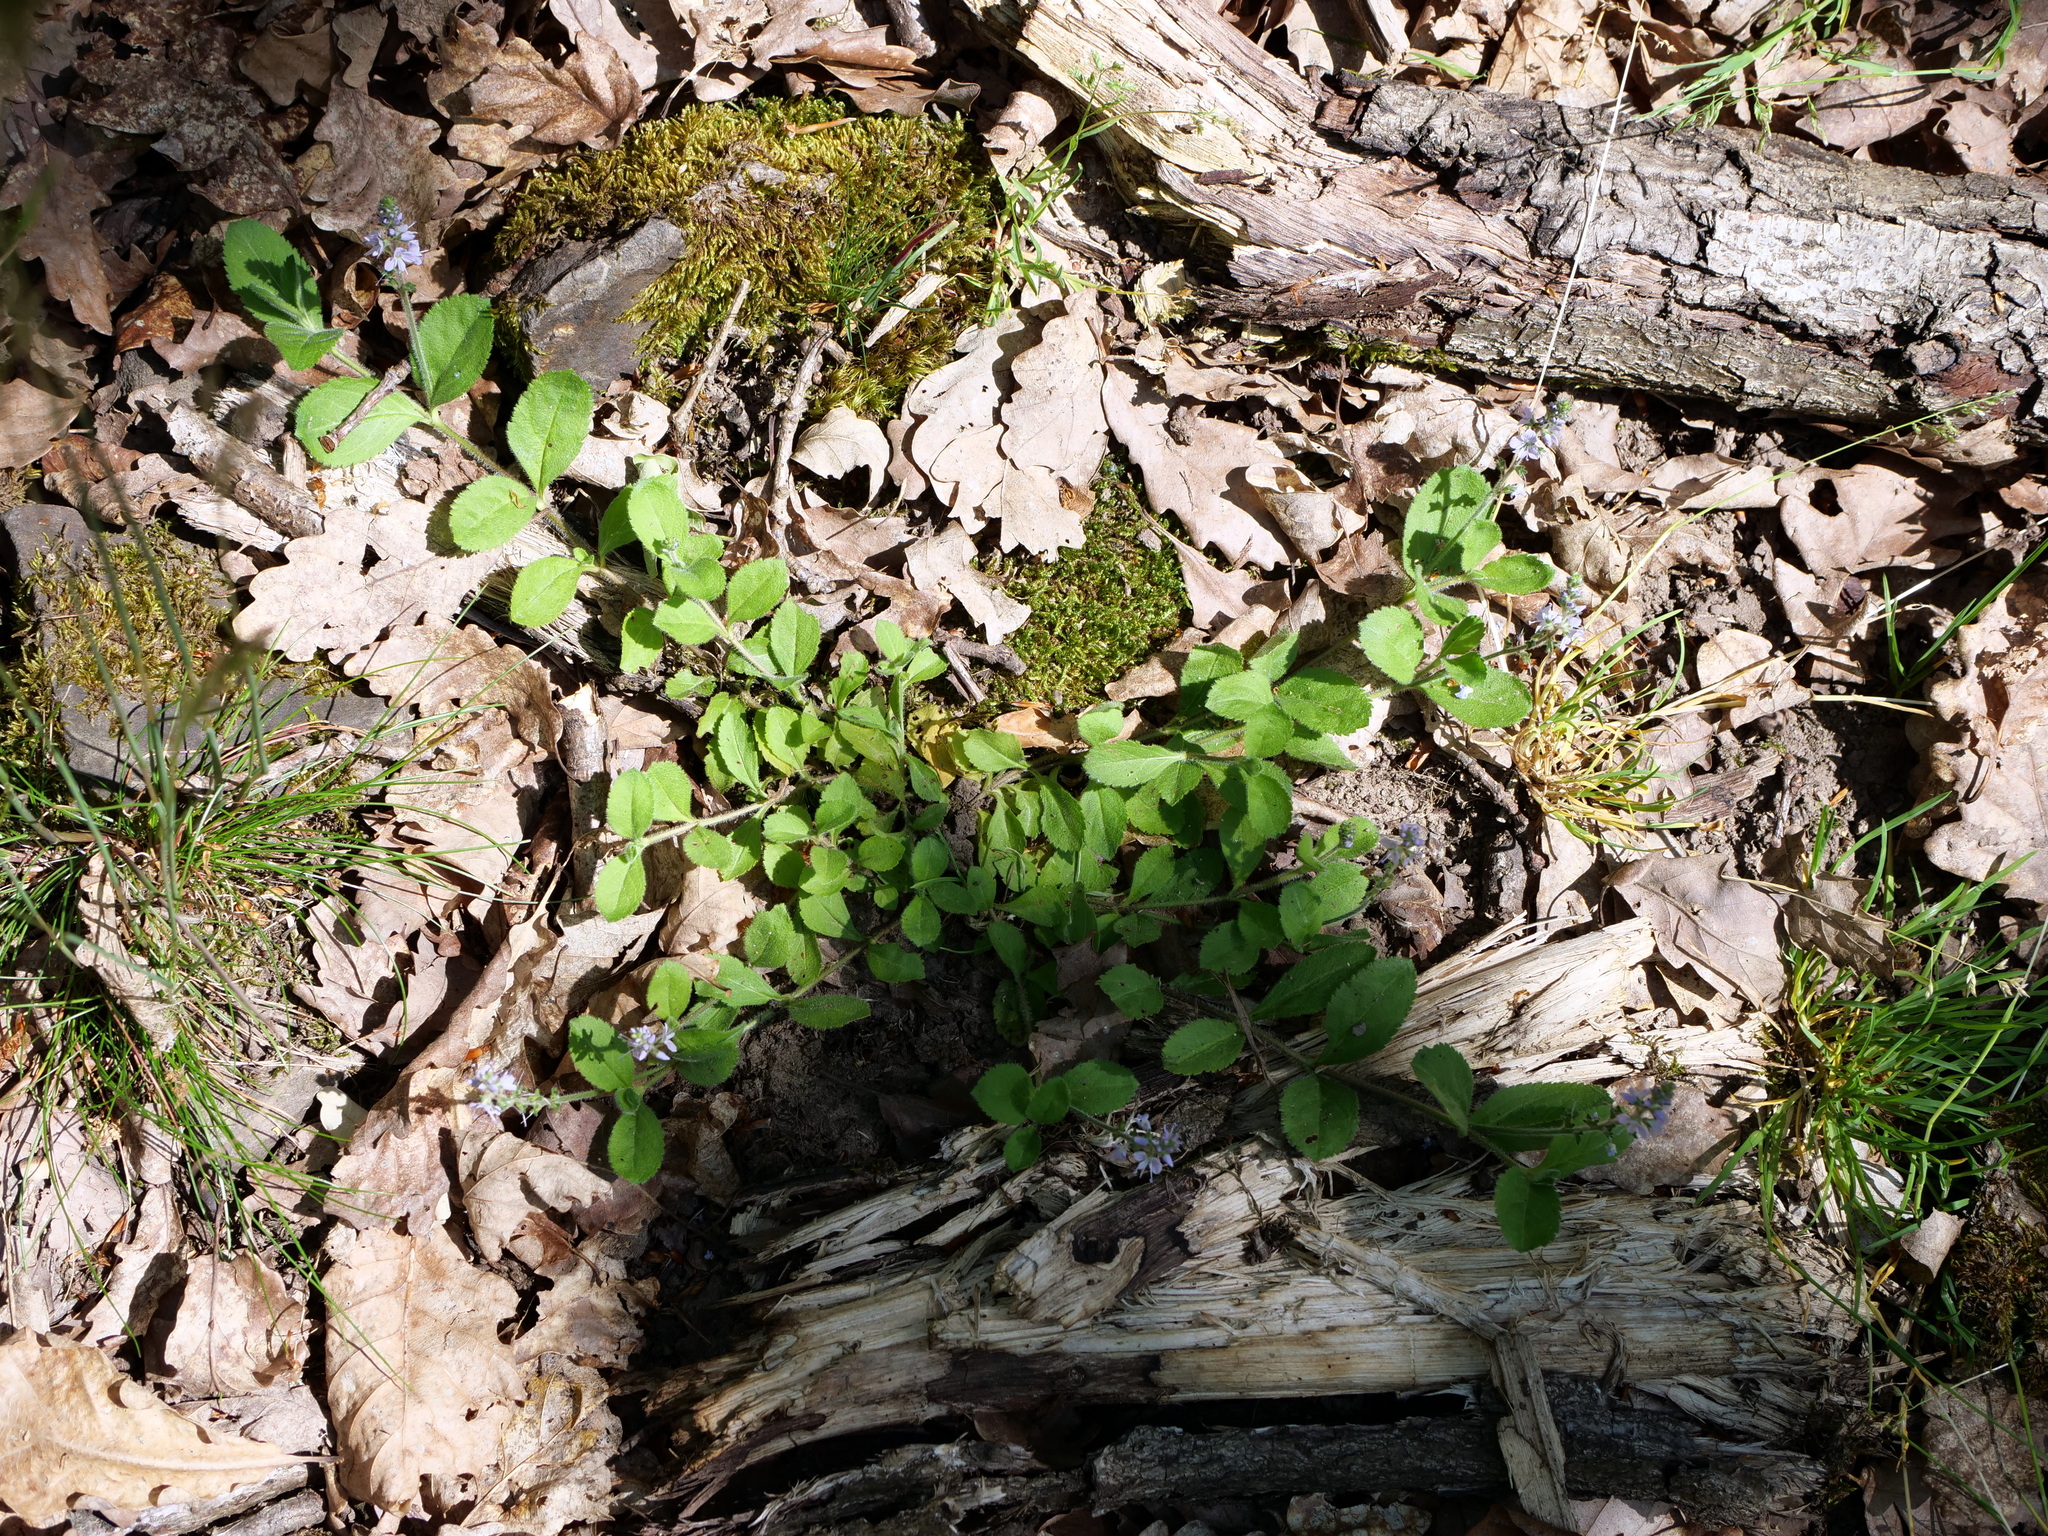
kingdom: Plantae
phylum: Tracheophyta
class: Magnoliopsida
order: Lamiales
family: Plantaginaceae
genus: Veronica
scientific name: Veronica officinalis
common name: Common speedwell
